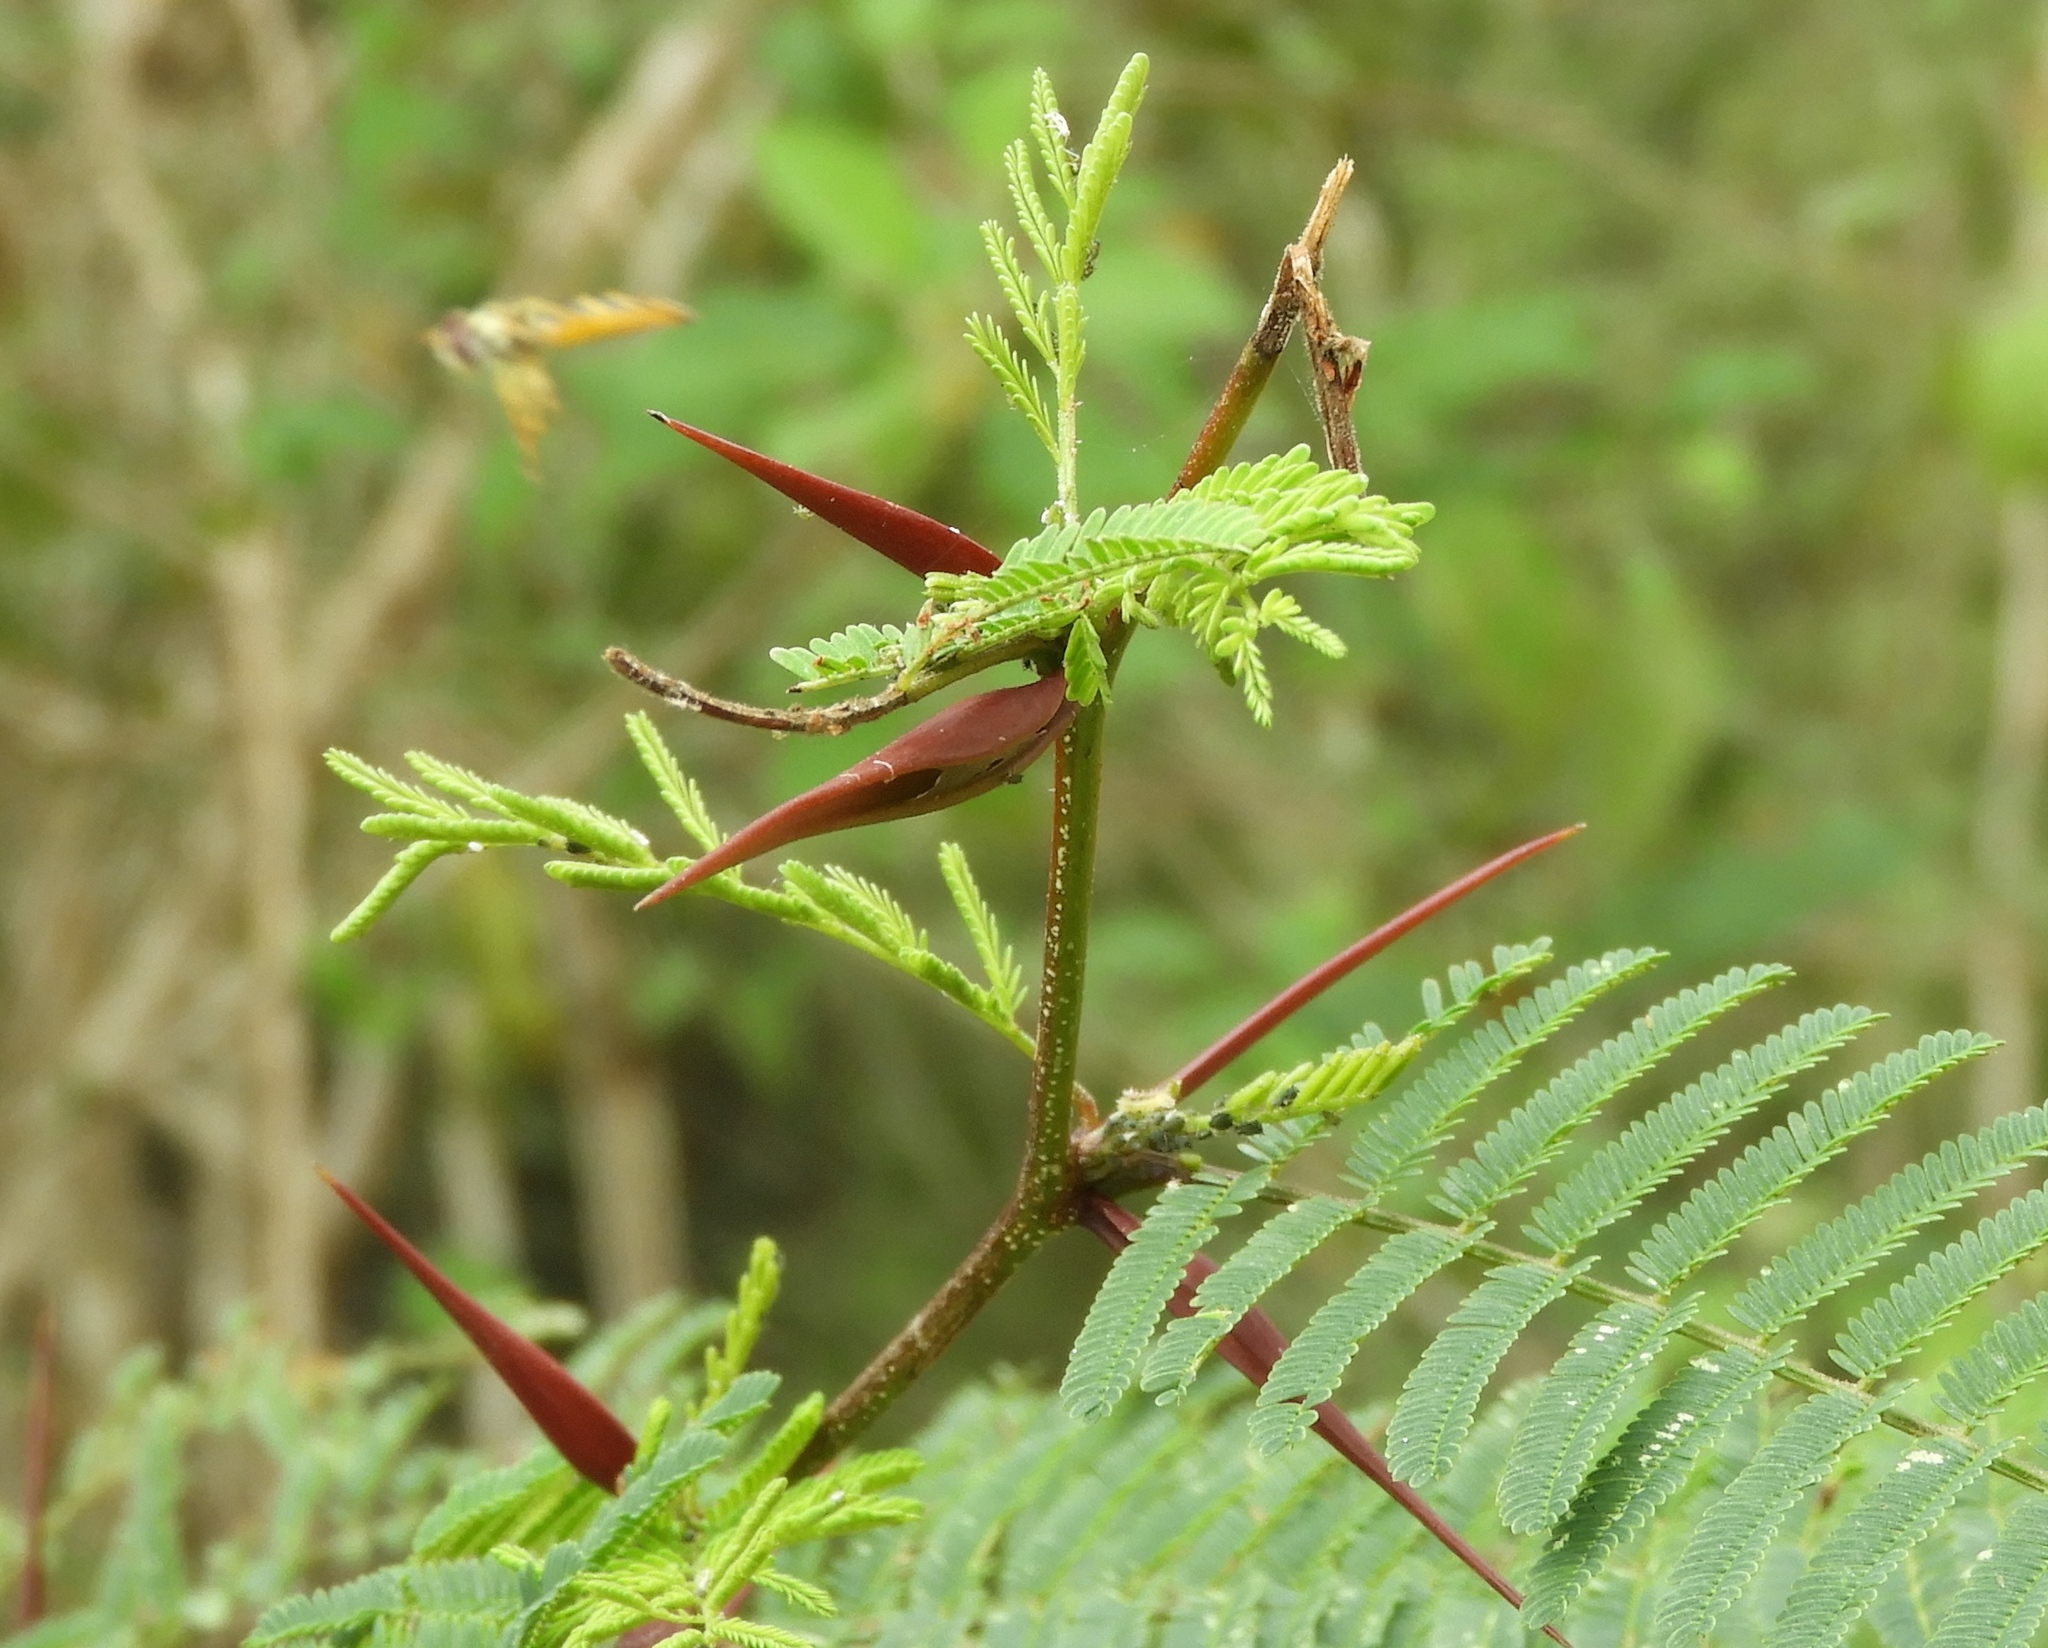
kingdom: Plantae
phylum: Tracheophyta
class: Magnoliopsida
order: Fabales
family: Fabaceae
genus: Vachellia
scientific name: Vachellia
